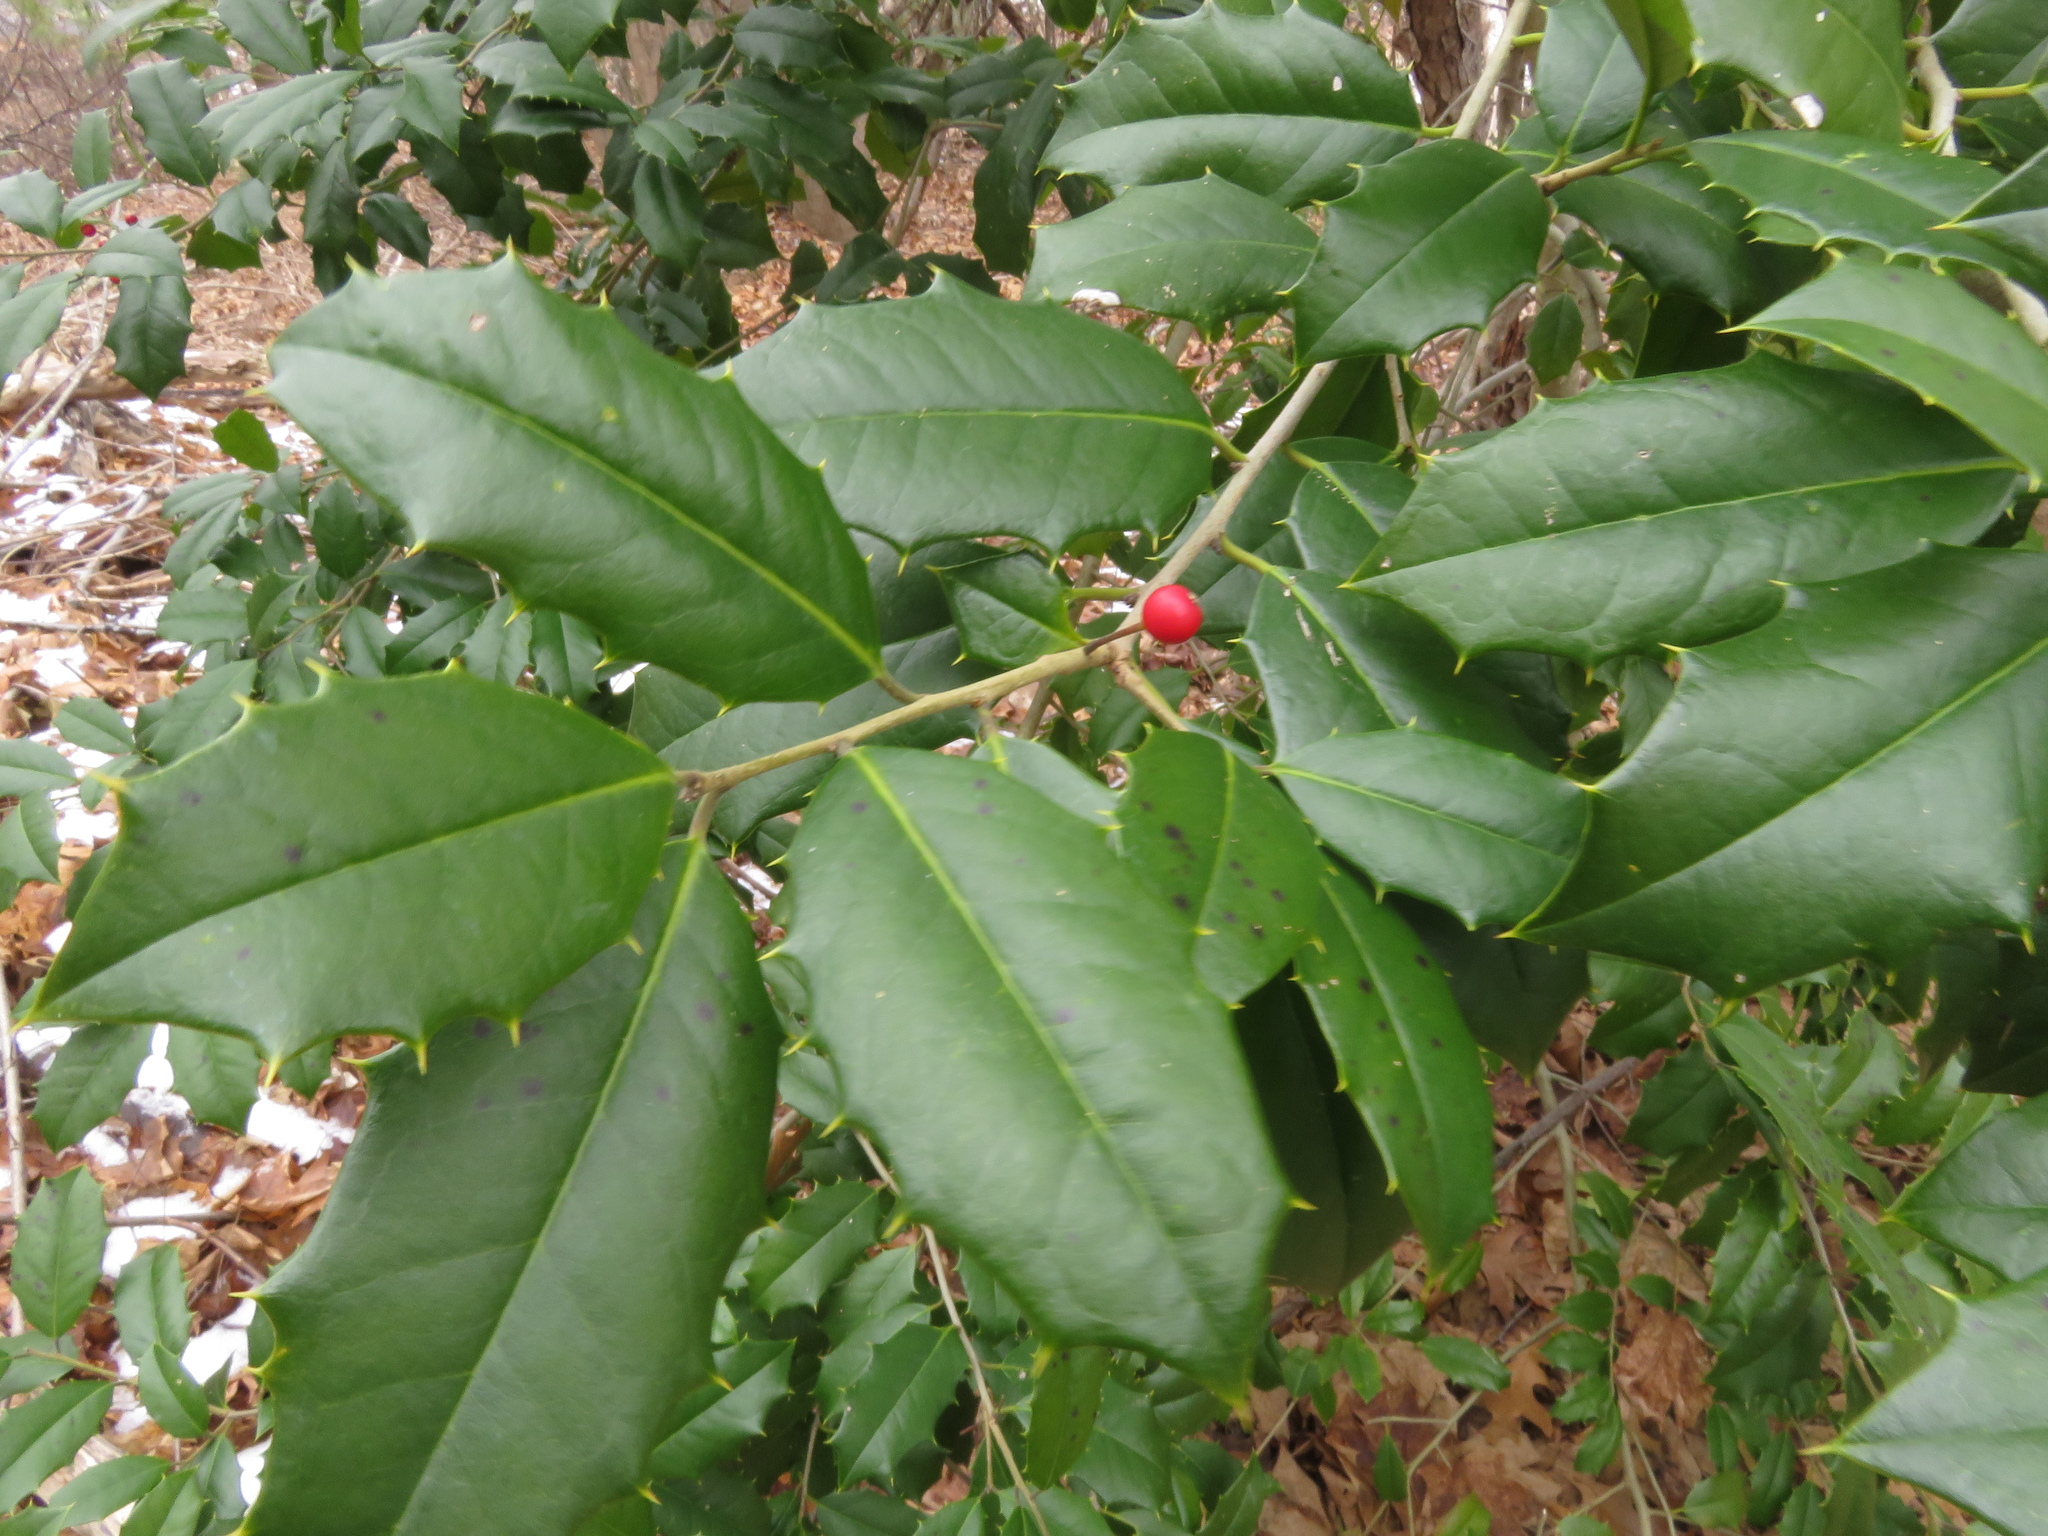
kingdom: Plantae
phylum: Tracheophyta
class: Magnoliopsida
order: Aquifoliales
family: Aquifoliaceae
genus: Ilex
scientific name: Ilex opaca
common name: American holly
